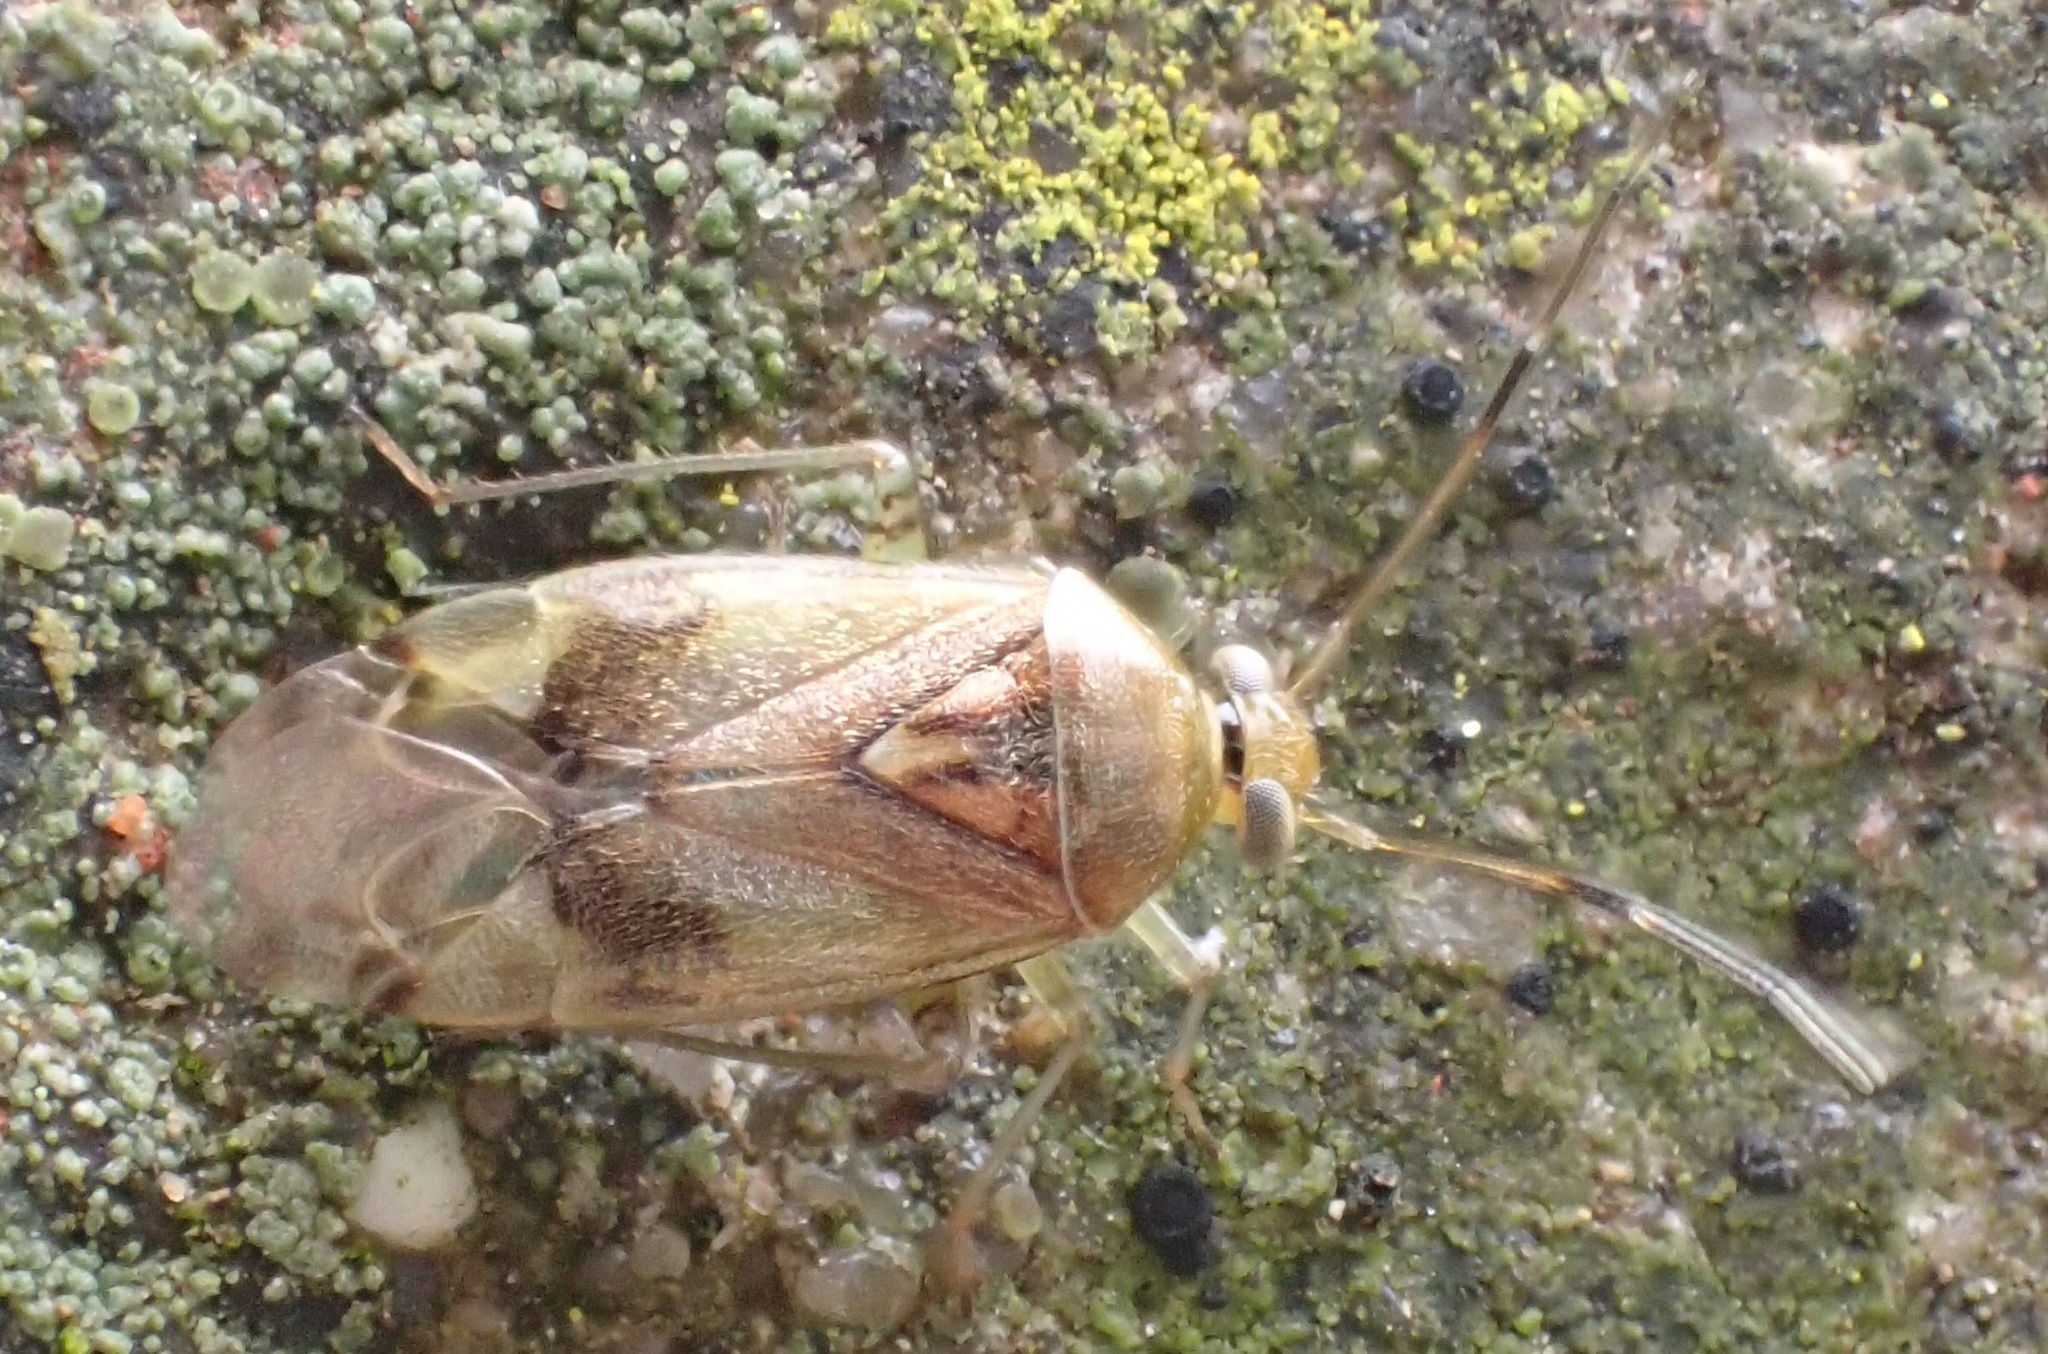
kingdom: Animalia
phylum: Arthropoda
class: Insecta
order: Hemiptera
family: Miridae
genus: Pinalitus
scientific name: Pinalitus cervinus
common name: Plant bug
